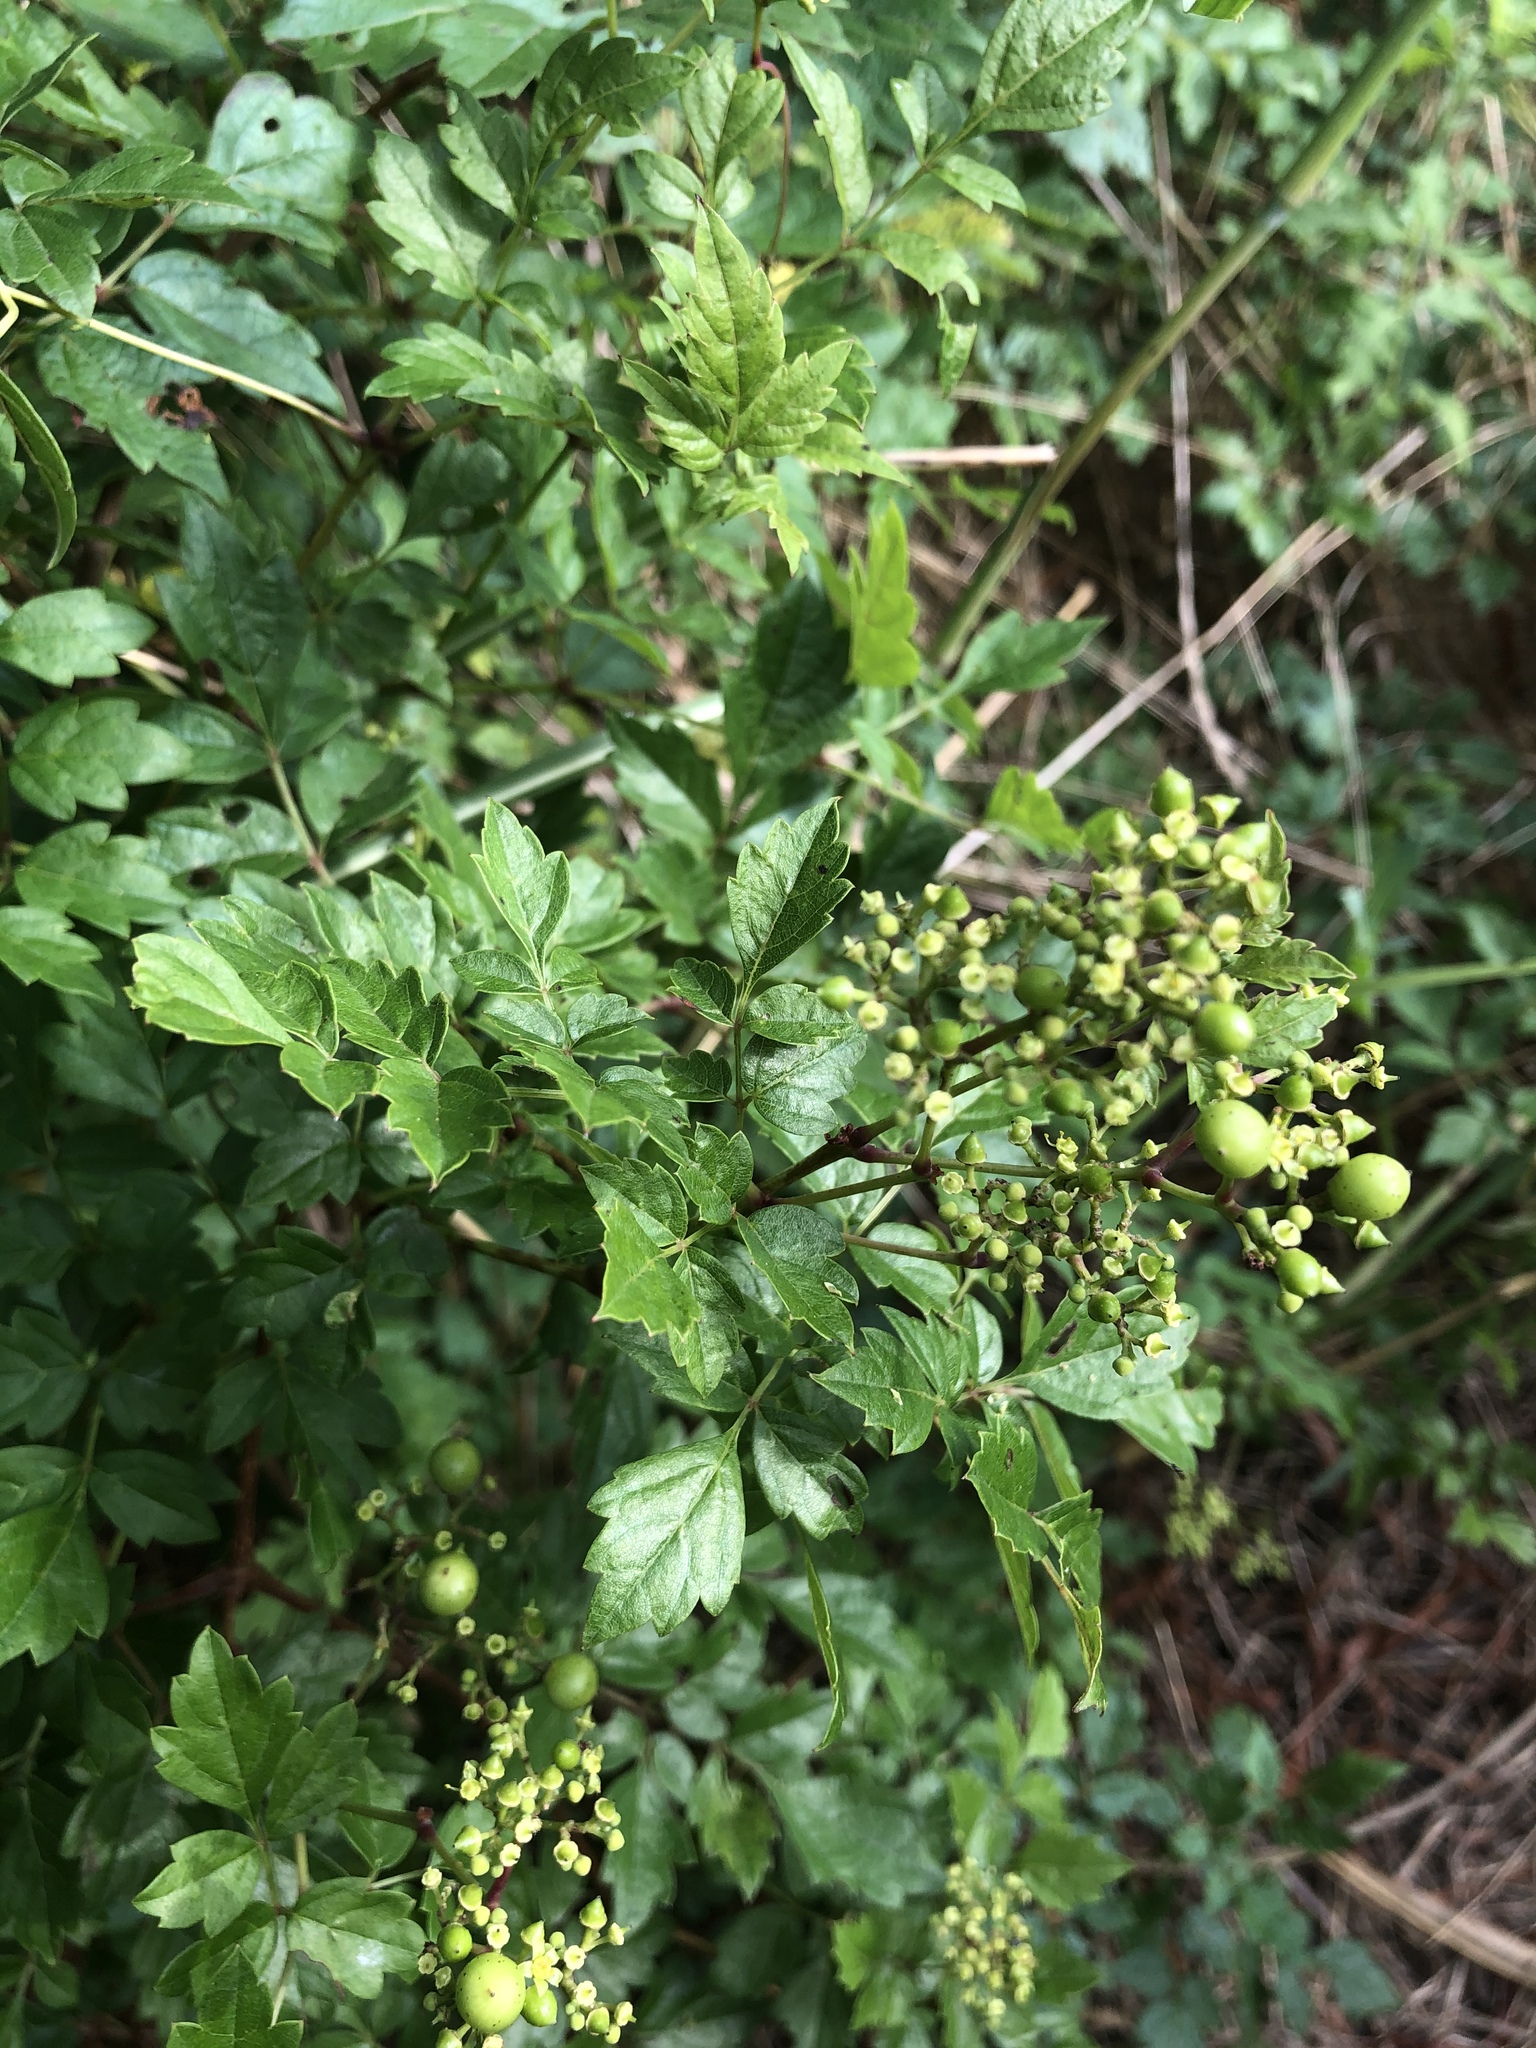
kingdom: Plantae
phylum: Tracheophyta
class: Magnoliopsida
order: Vitales
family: Vitaceae
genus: Nekemias
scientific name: Nekemias arborea
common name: Peppervine
